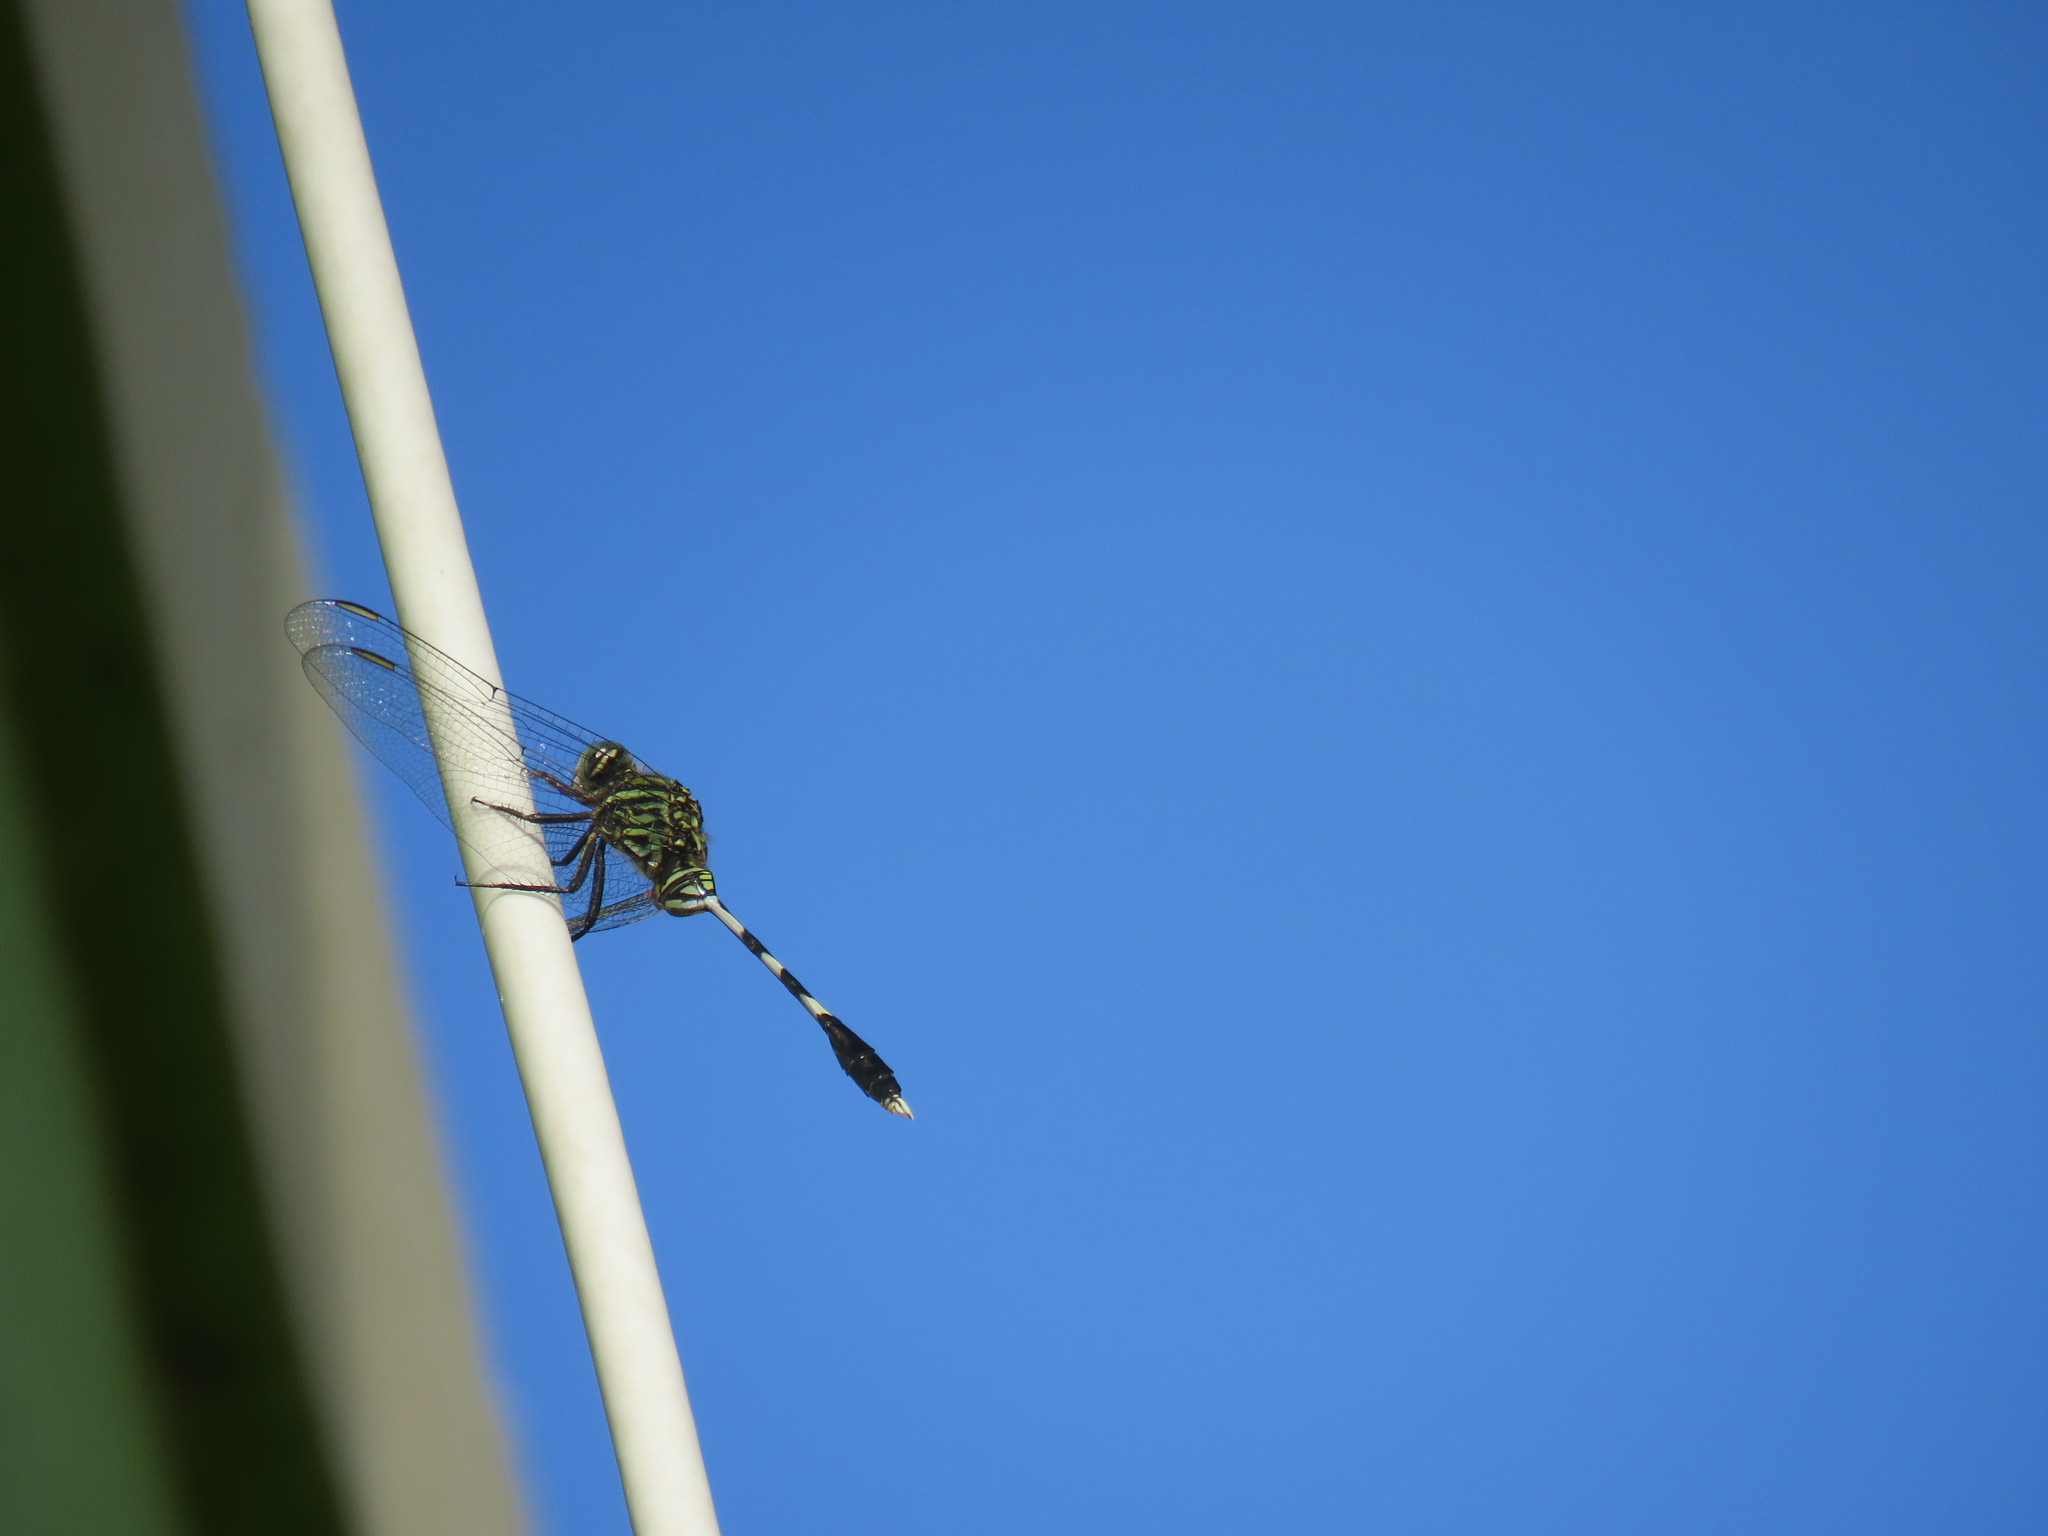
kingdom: Animalia
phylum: Arthropoda
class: Insecta
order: Odonata
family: Libellulidae
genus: Orthetrum
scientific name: Orthetrum sabina
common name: Slender skimmer
